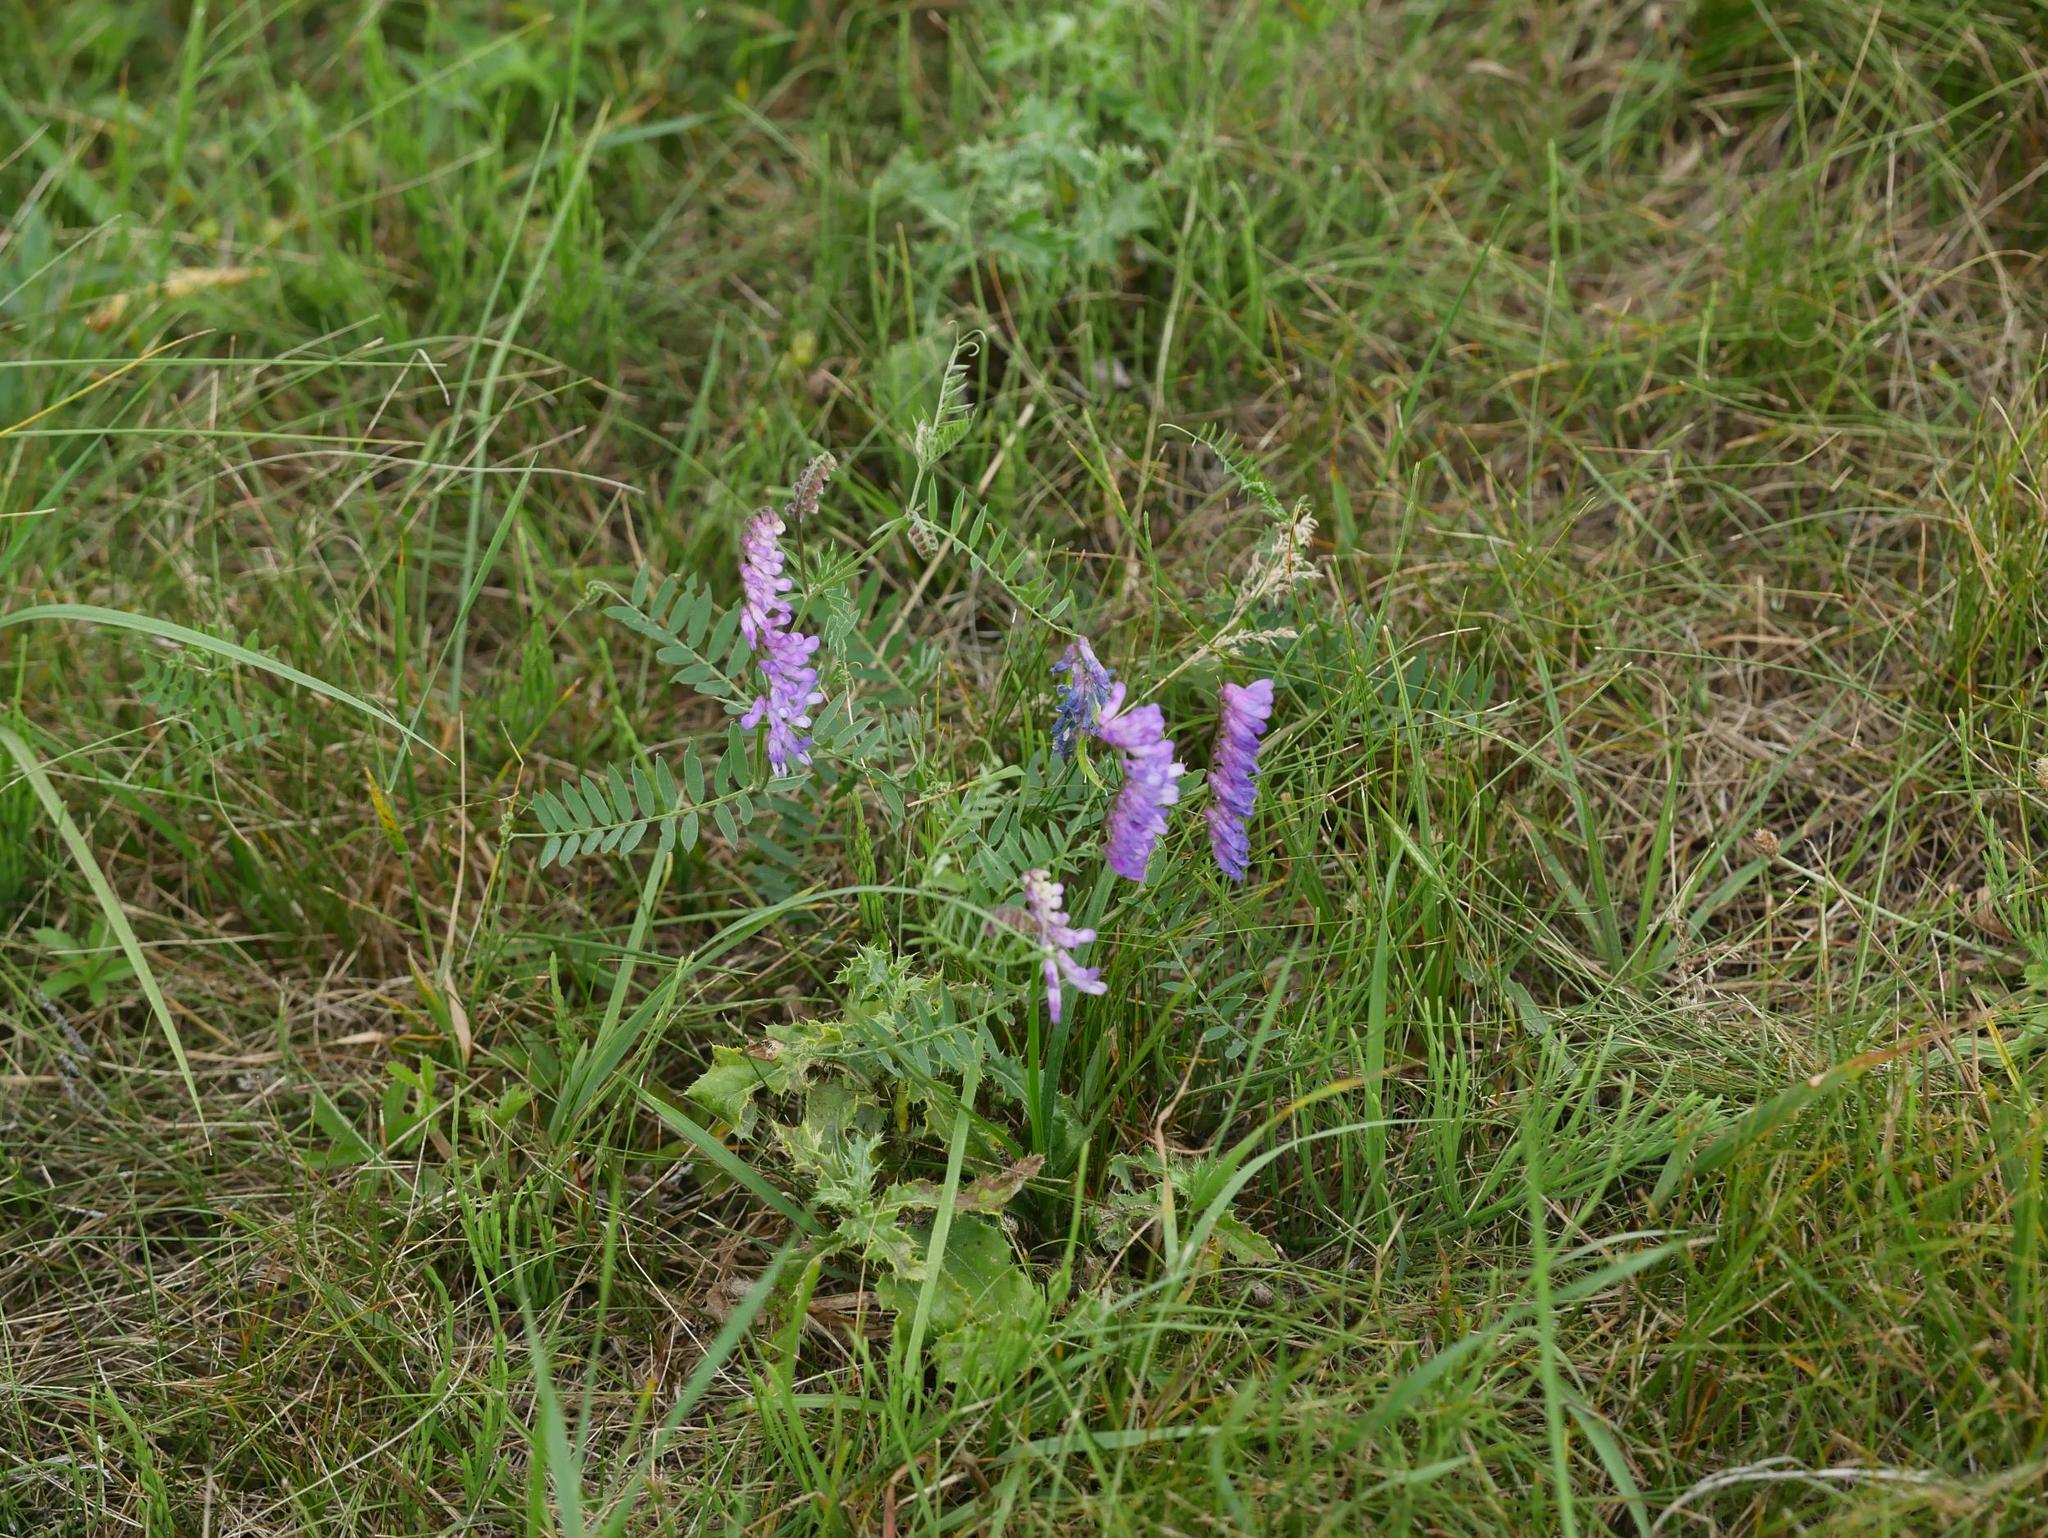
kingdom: Plantae
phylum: Tracheophyta
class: Magnoliopsida
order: Fabales
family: Fabaceae
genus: Vicia
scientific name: Vicia cracca
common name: Bird vetch
